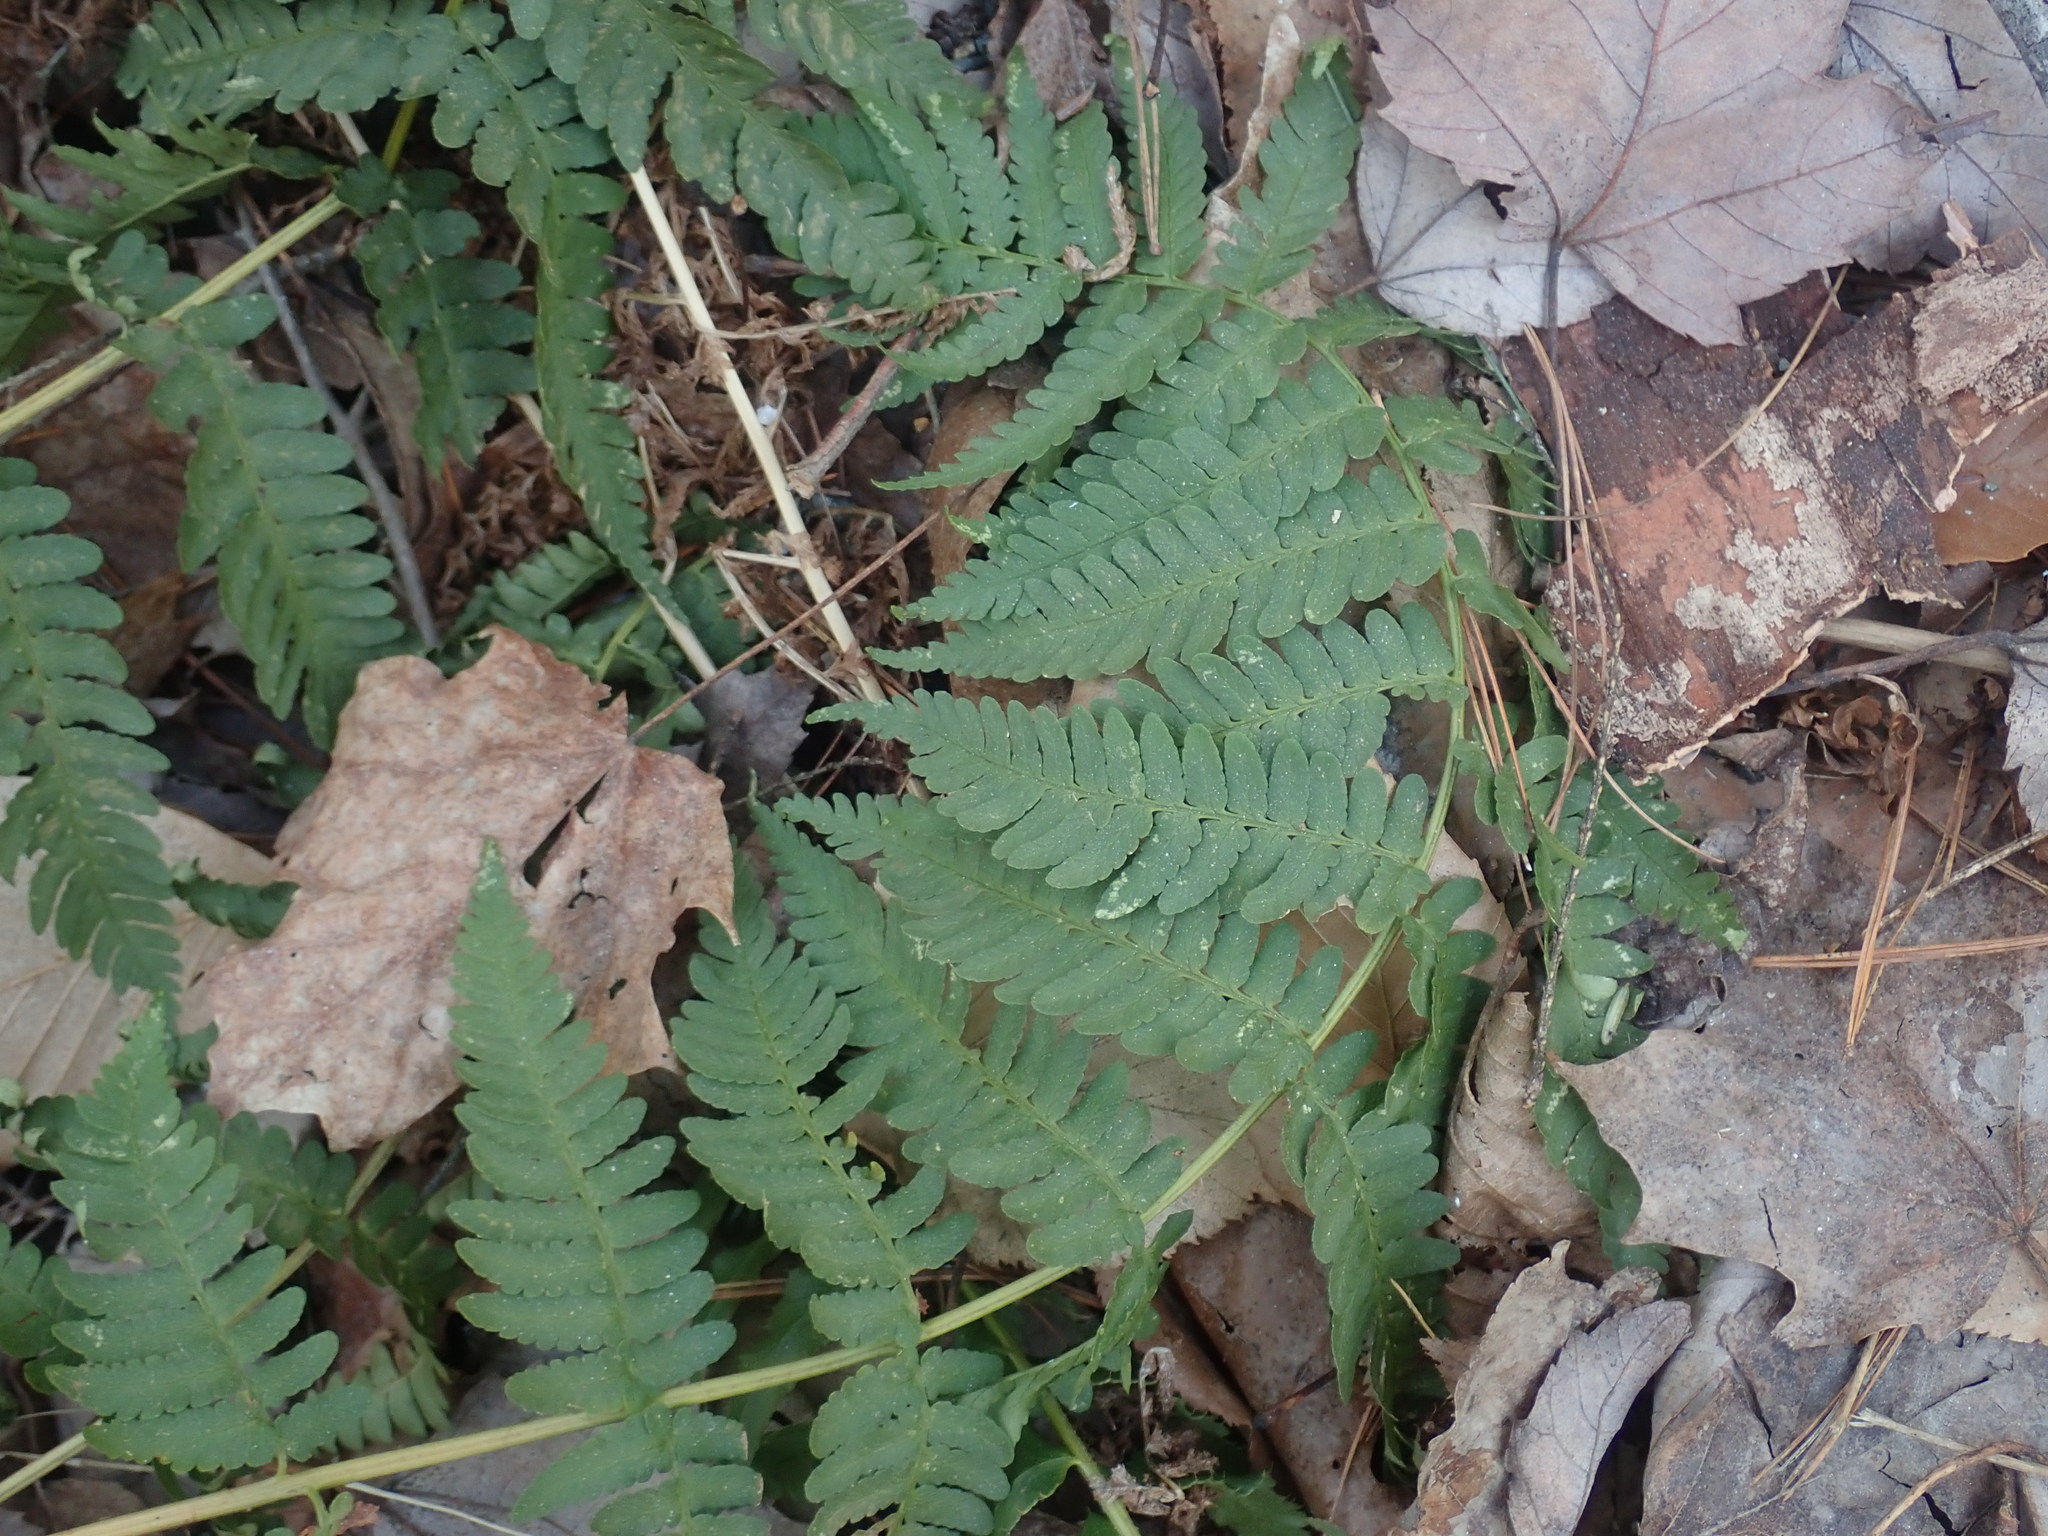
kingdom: Plantae
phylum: Tracheophyta
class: Polypodiopsida
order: Polypodiales
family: Dryopteridaceae
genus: Dryopteris
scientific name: Dryopteris marginalis
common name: Marginal wood fern
